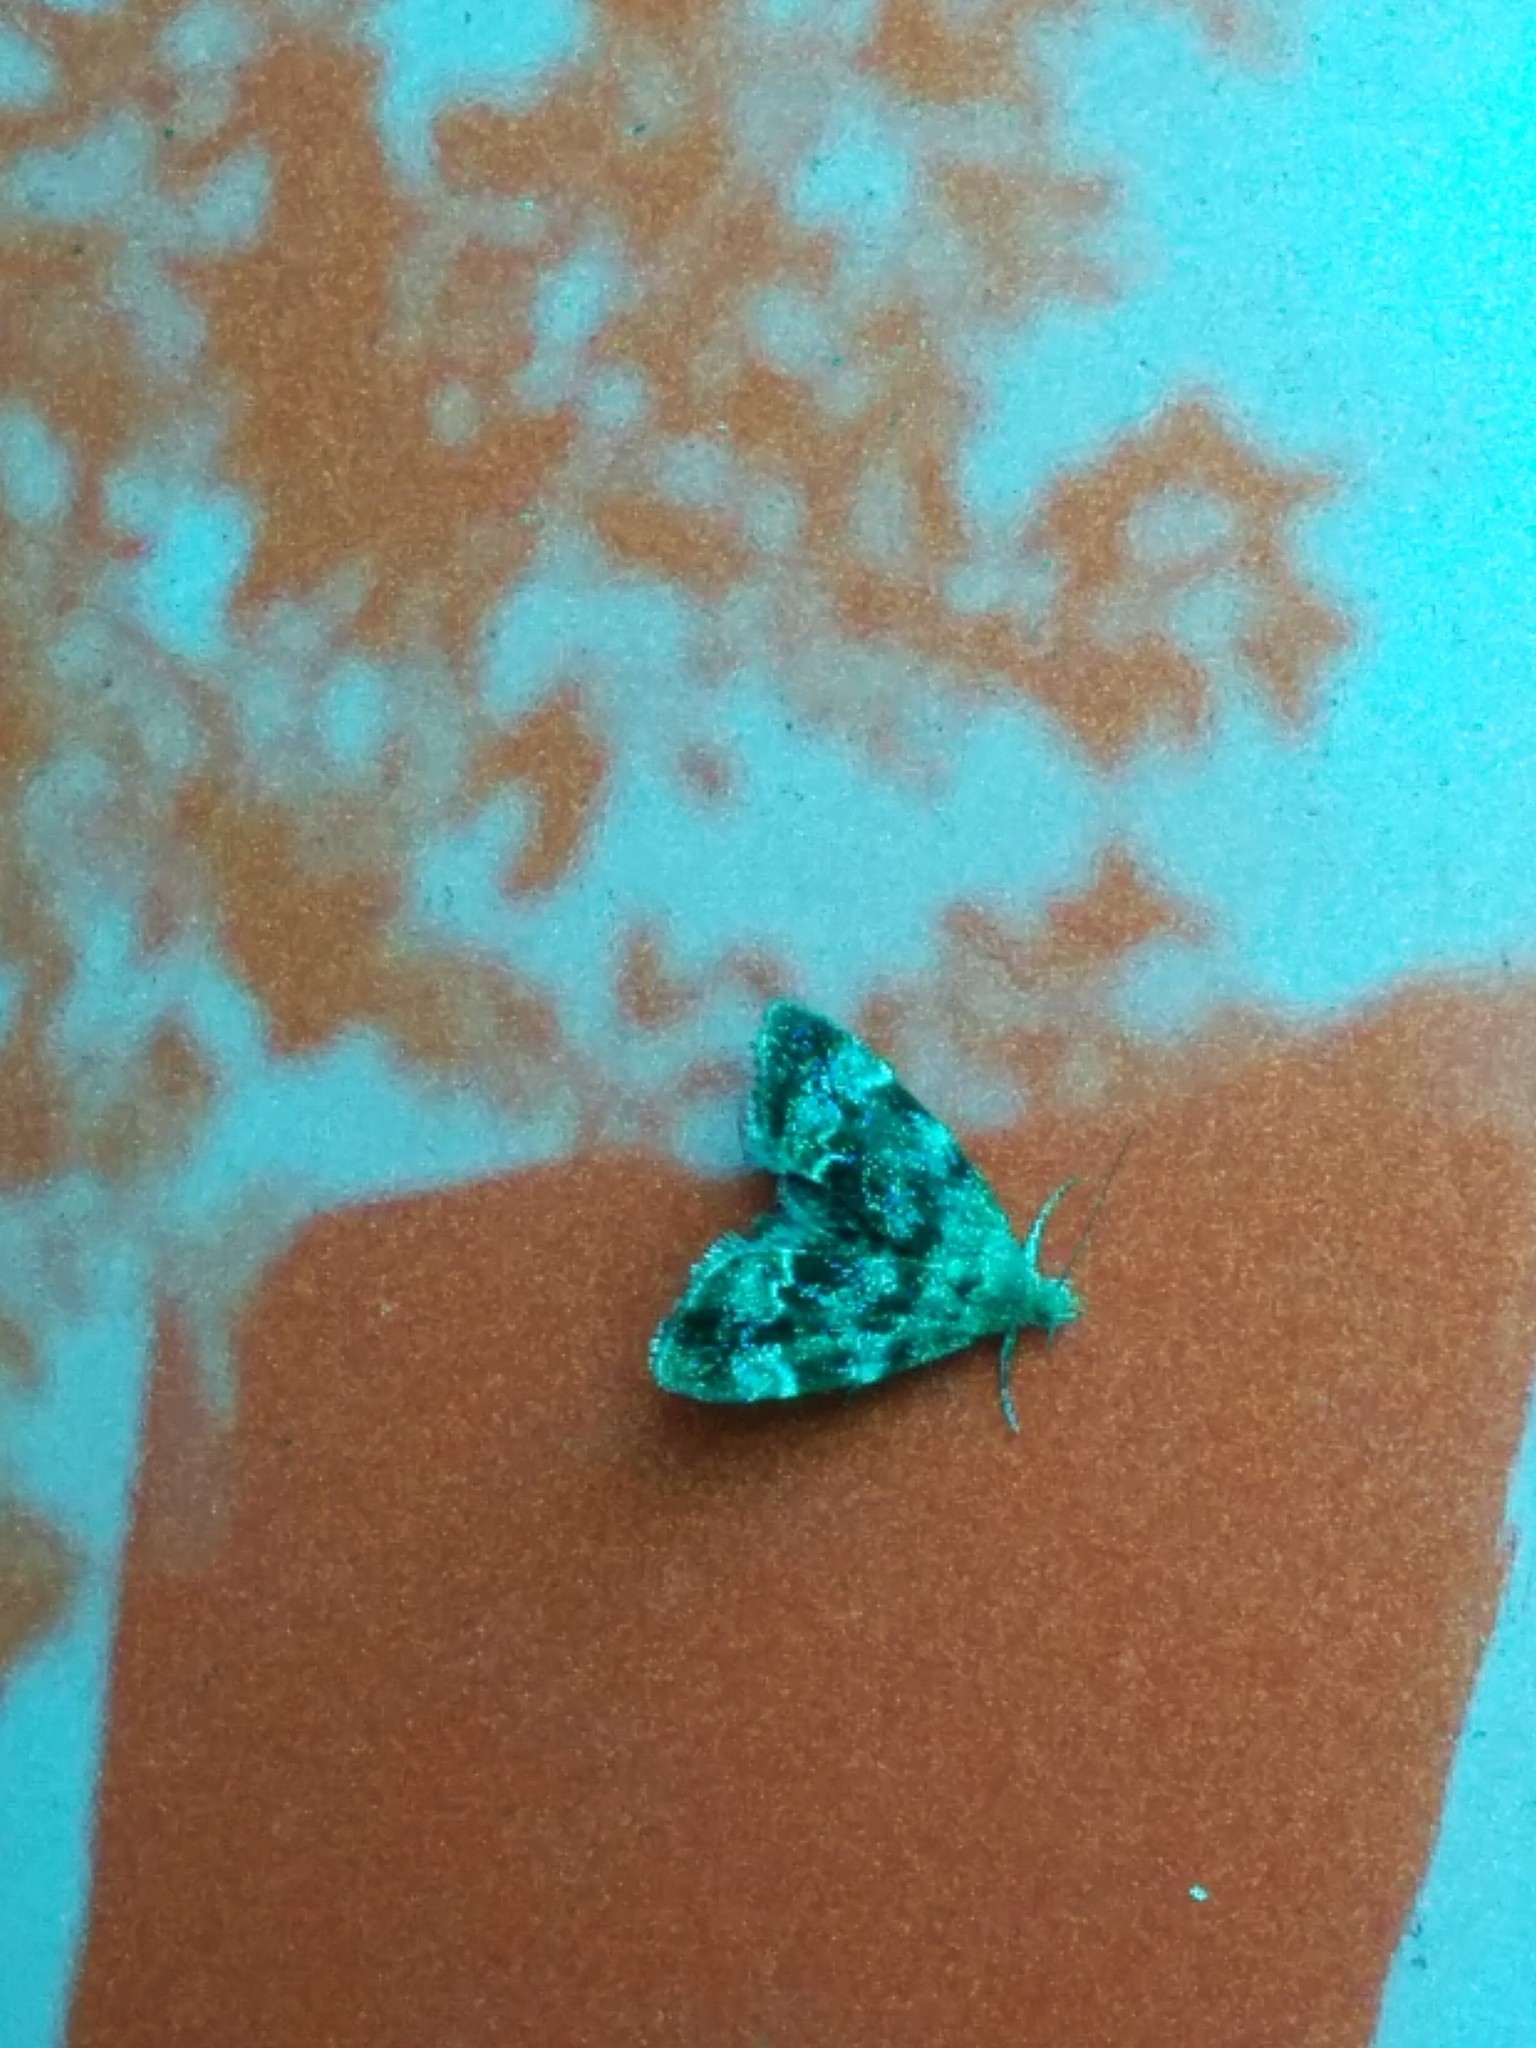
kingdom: Animalia
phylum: Arthropoda
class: Insecta
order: Lepidoptera
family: Choreutidae
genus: Anthophila
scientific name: Anthophila fabriciana
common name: Nettle-tap
